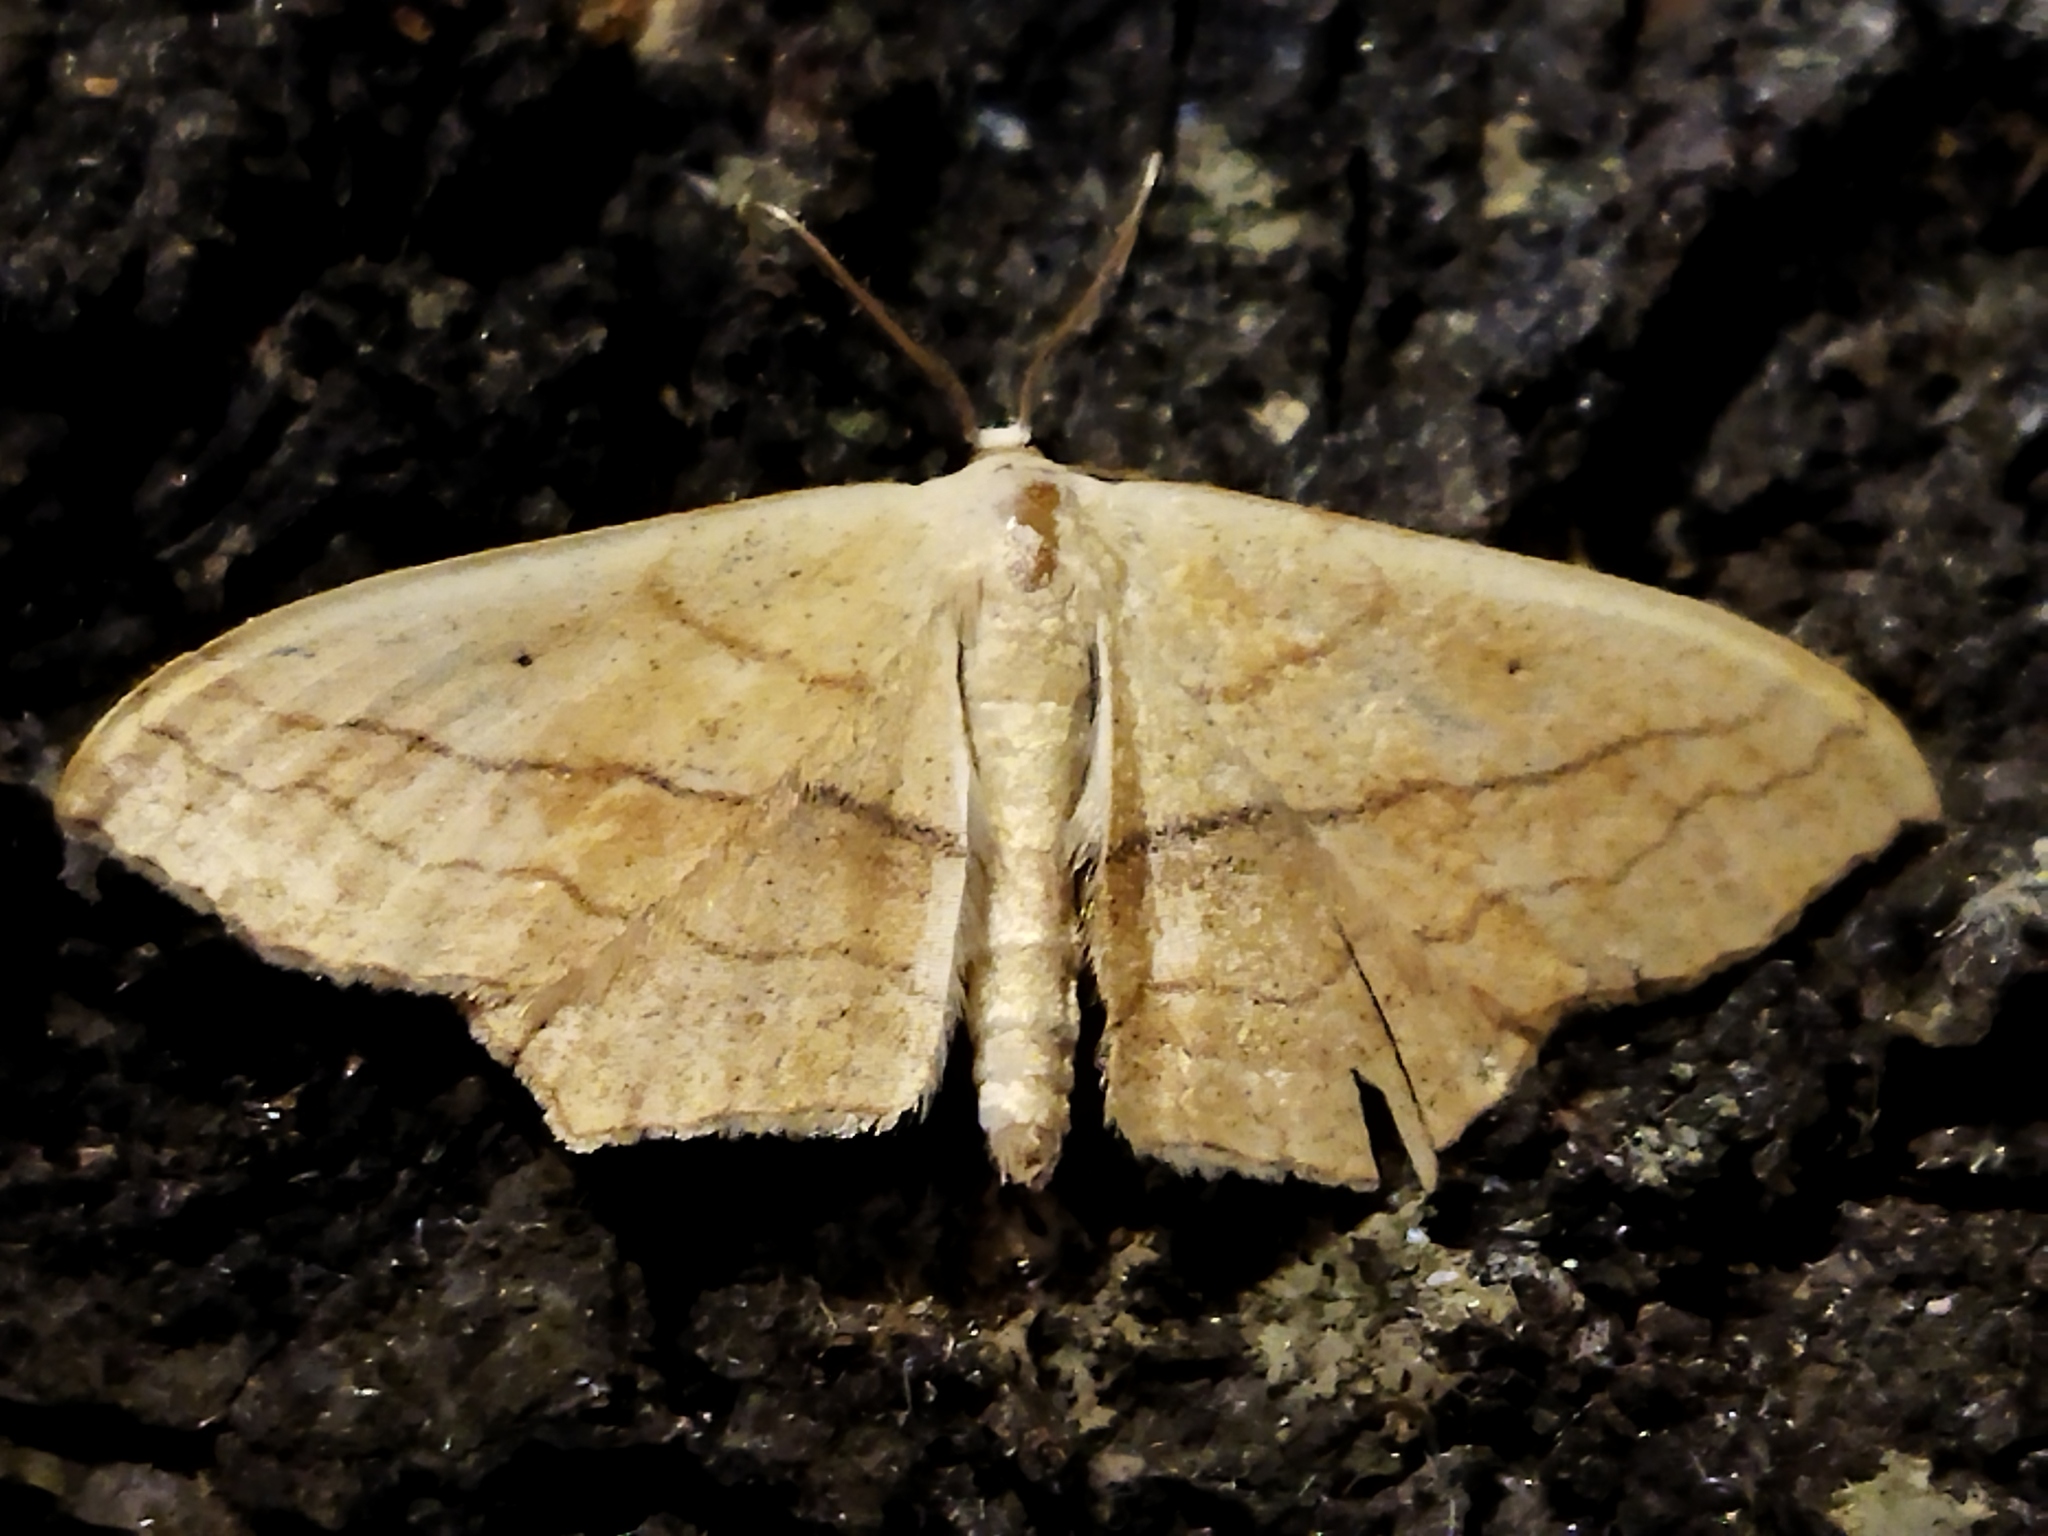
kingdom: Animalia
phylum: Arthropoda
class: Insecta
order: Lepidoptera
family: Geometridae
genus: Scopula
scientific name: Scopula imitaria
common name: Small blood-vein
